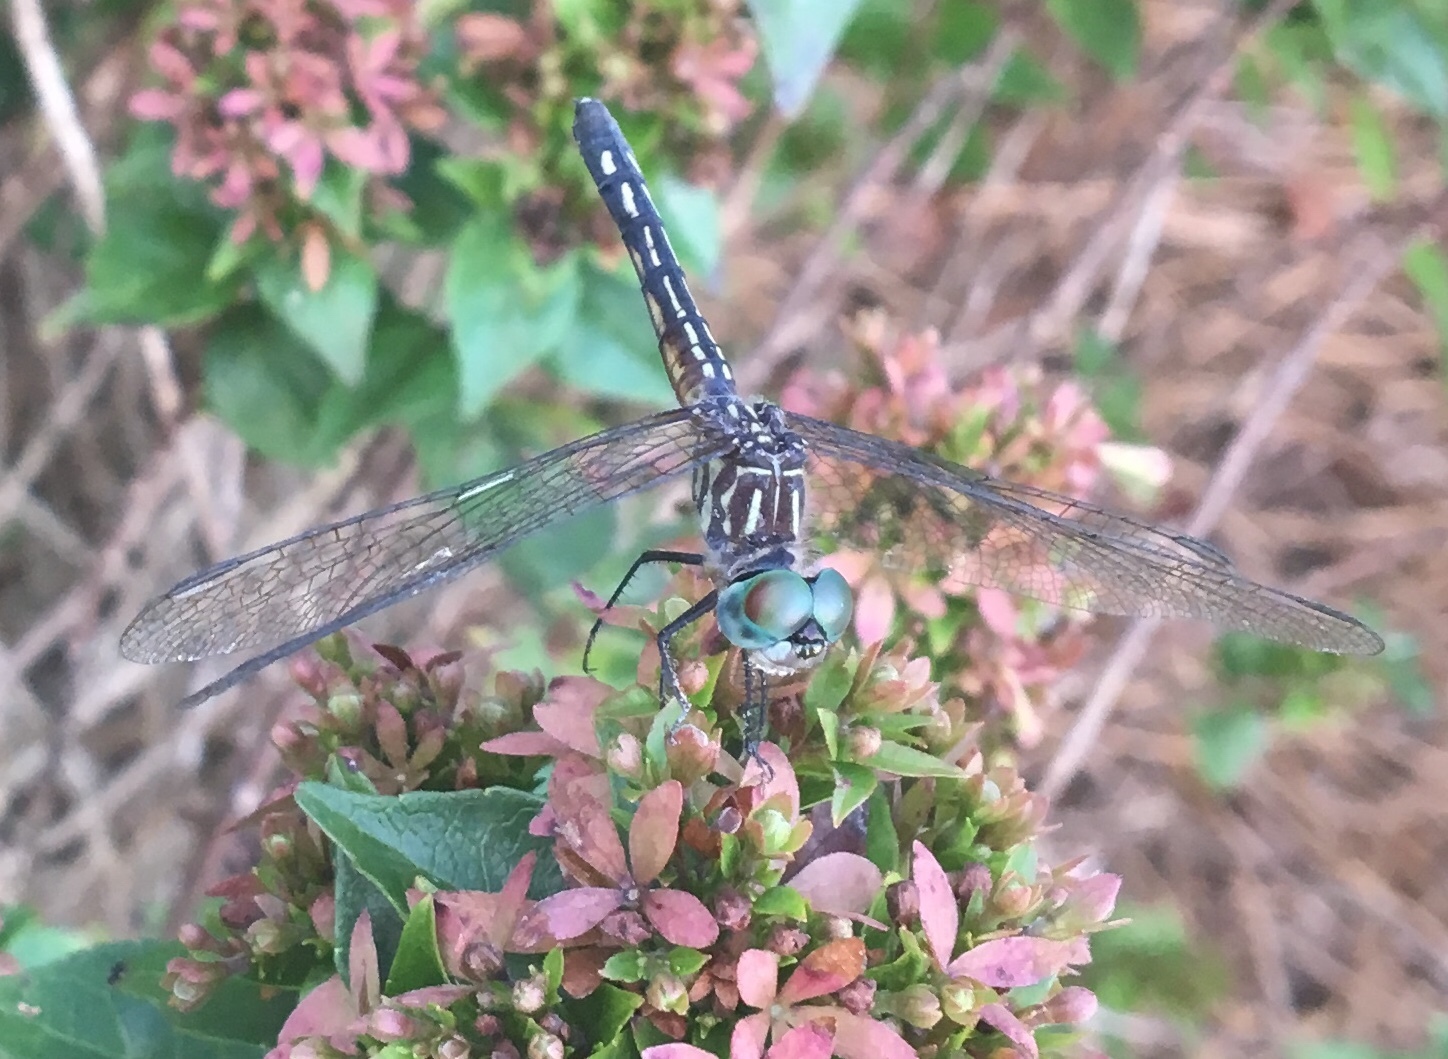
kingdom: Animalia
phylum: Arthropoda
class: Insecta
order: Odonata
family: Libellulidae
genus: Pachydiplax
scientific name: Pachydiplax longipennis
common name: Blue dasher
